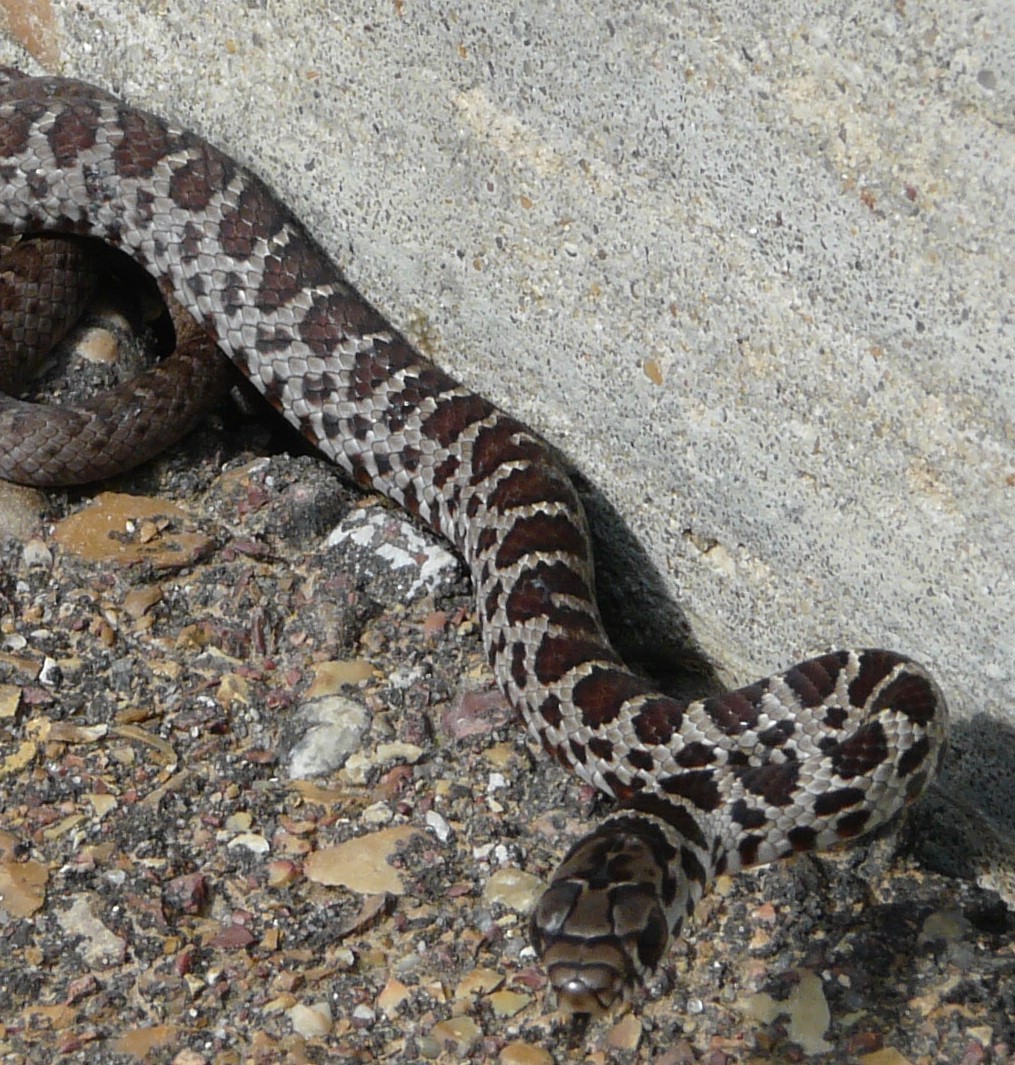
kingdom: Animalia
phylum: Chordata
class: Squamata
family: Colubridae
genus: Coluber
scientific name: Coluber constrictor
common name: Eastern racer
